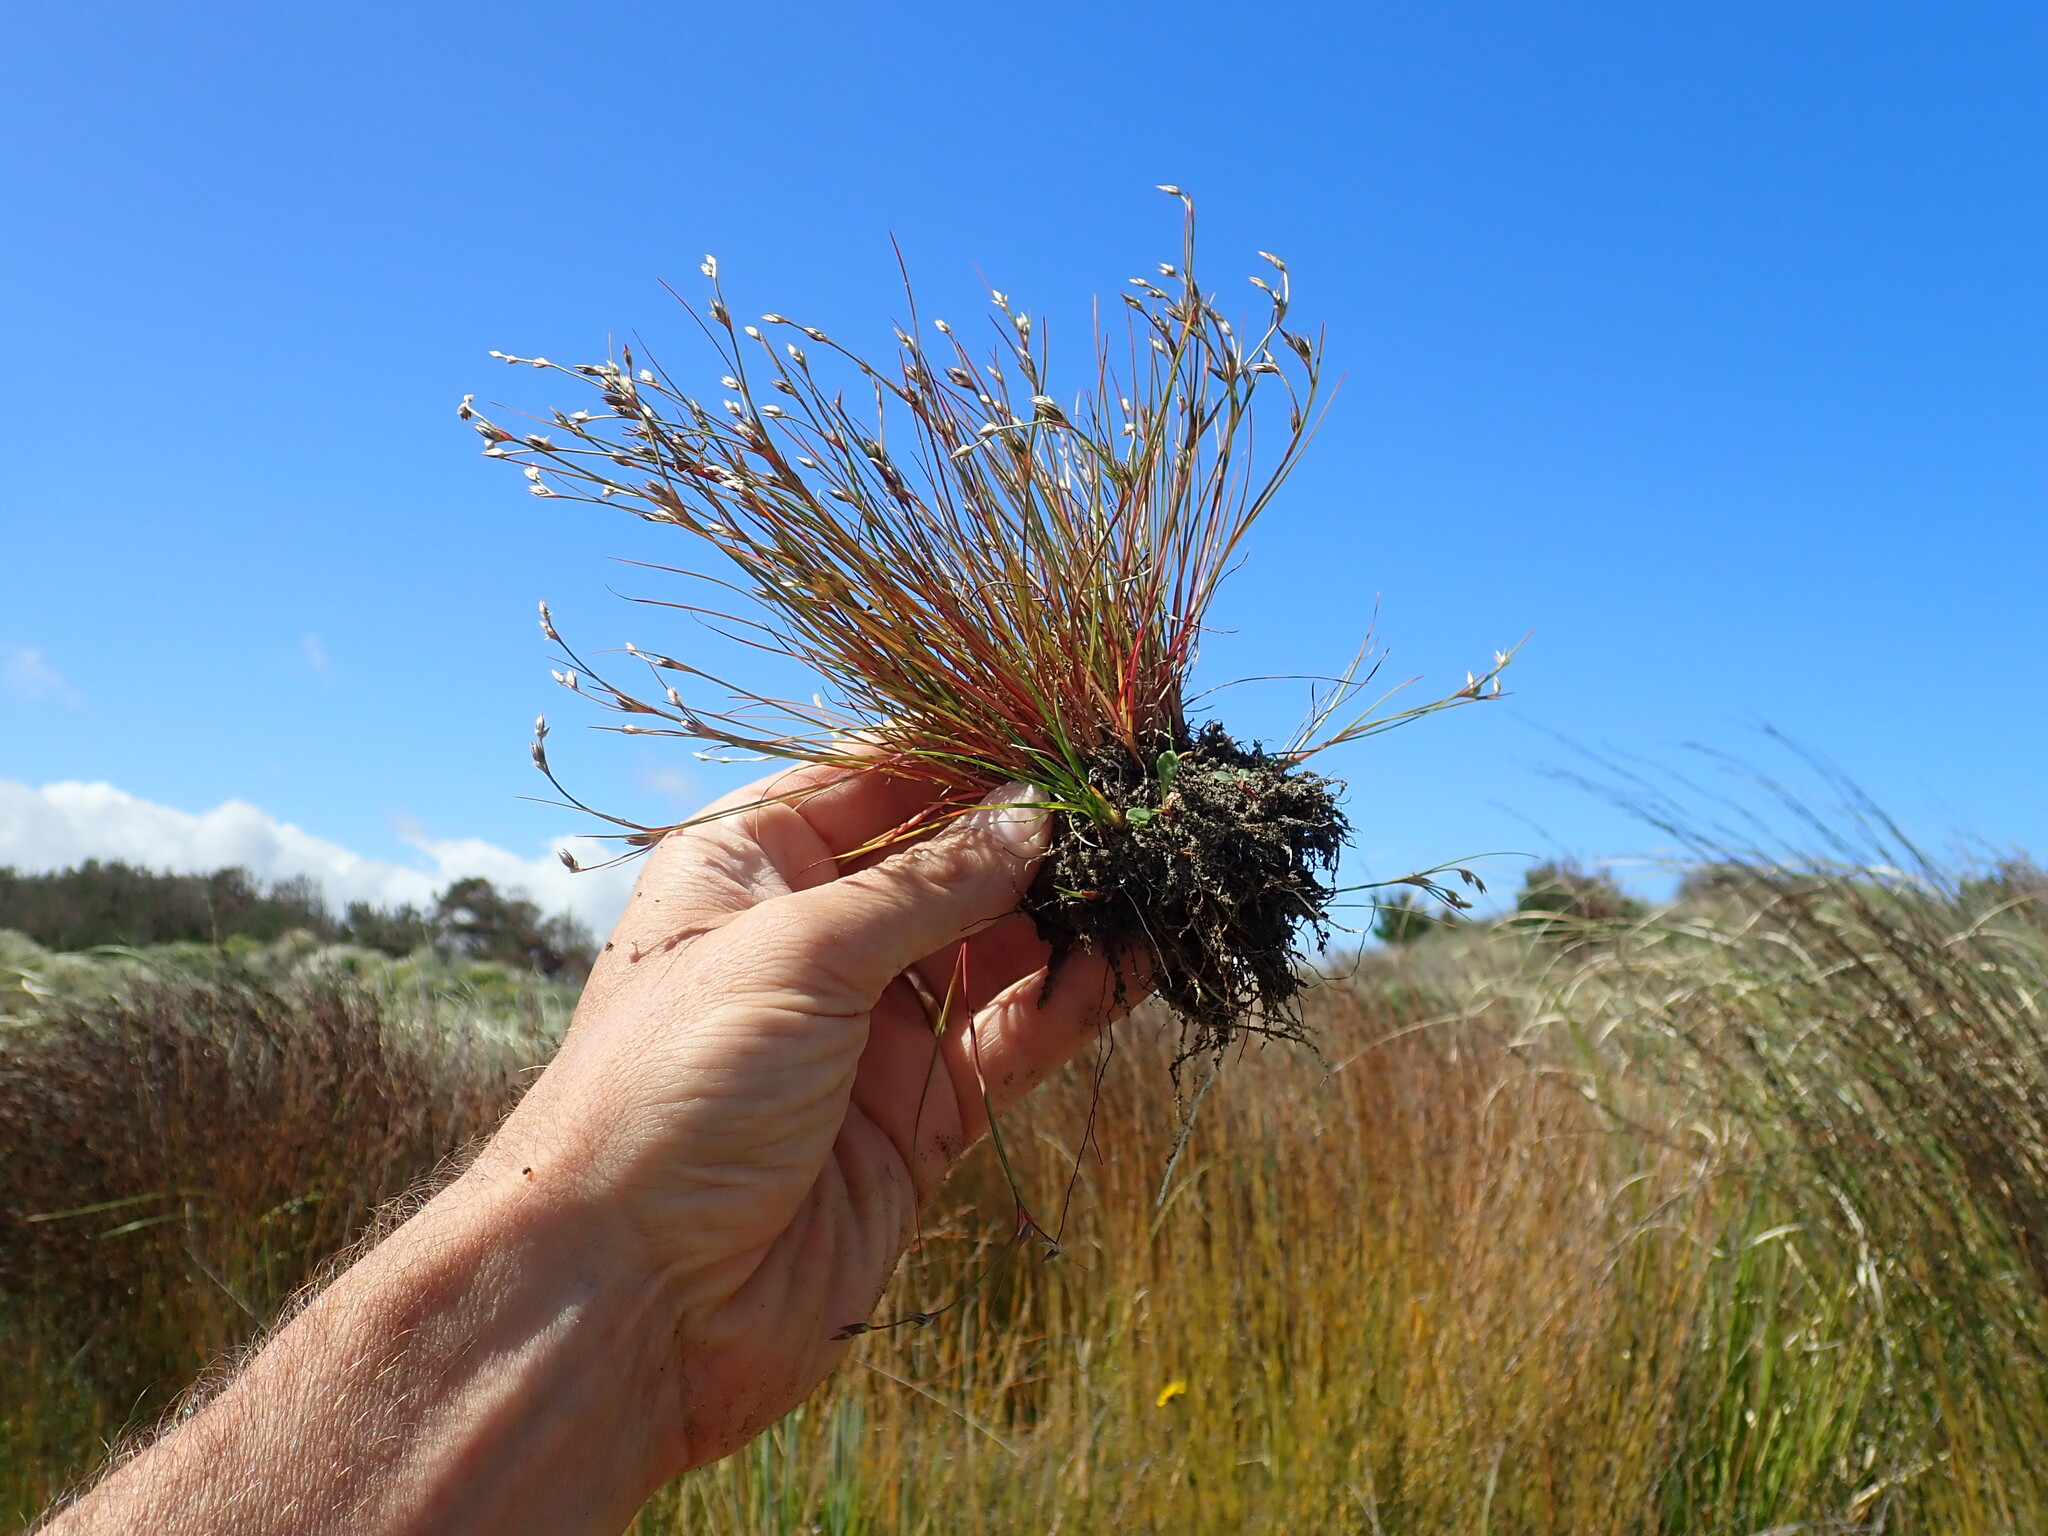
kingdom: Plantae
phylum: Tracheophyta
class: Liliopsida
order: Poales
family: Juncaceae
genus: Juncus
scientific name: Juncus bufonius
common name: Toad rush
